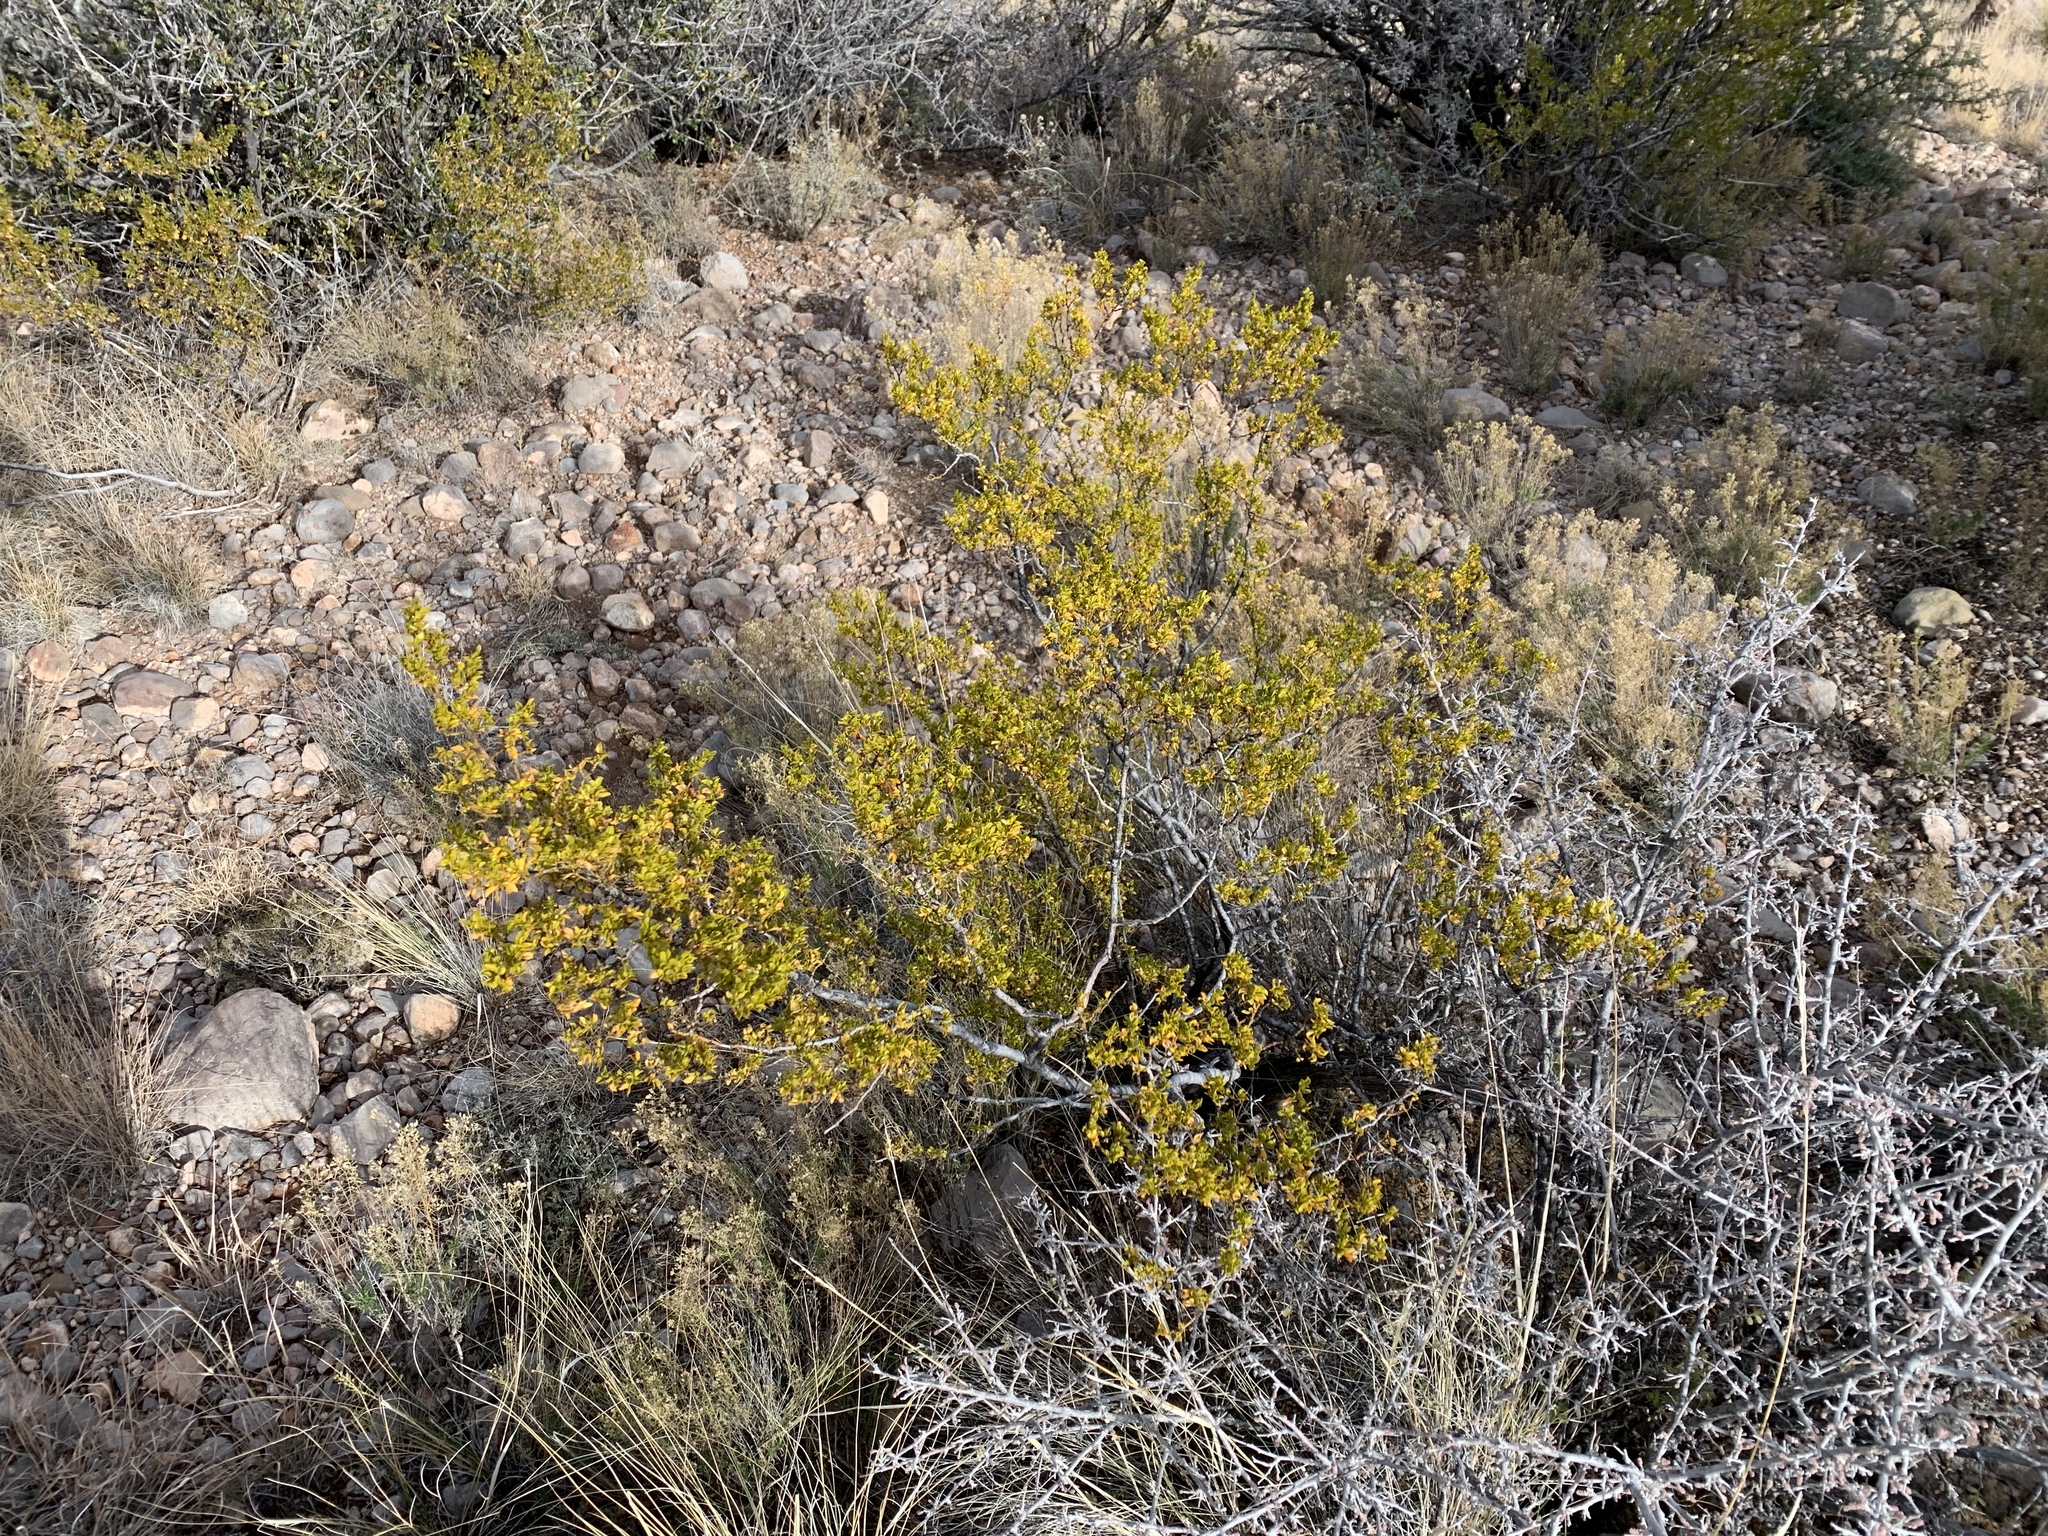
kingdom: Plantae
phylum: Tracheophyta
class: Magnoliopsida
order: Zygophyllales
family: Zygophyllaceae
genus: Larrea
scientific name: Larrea tridentata
